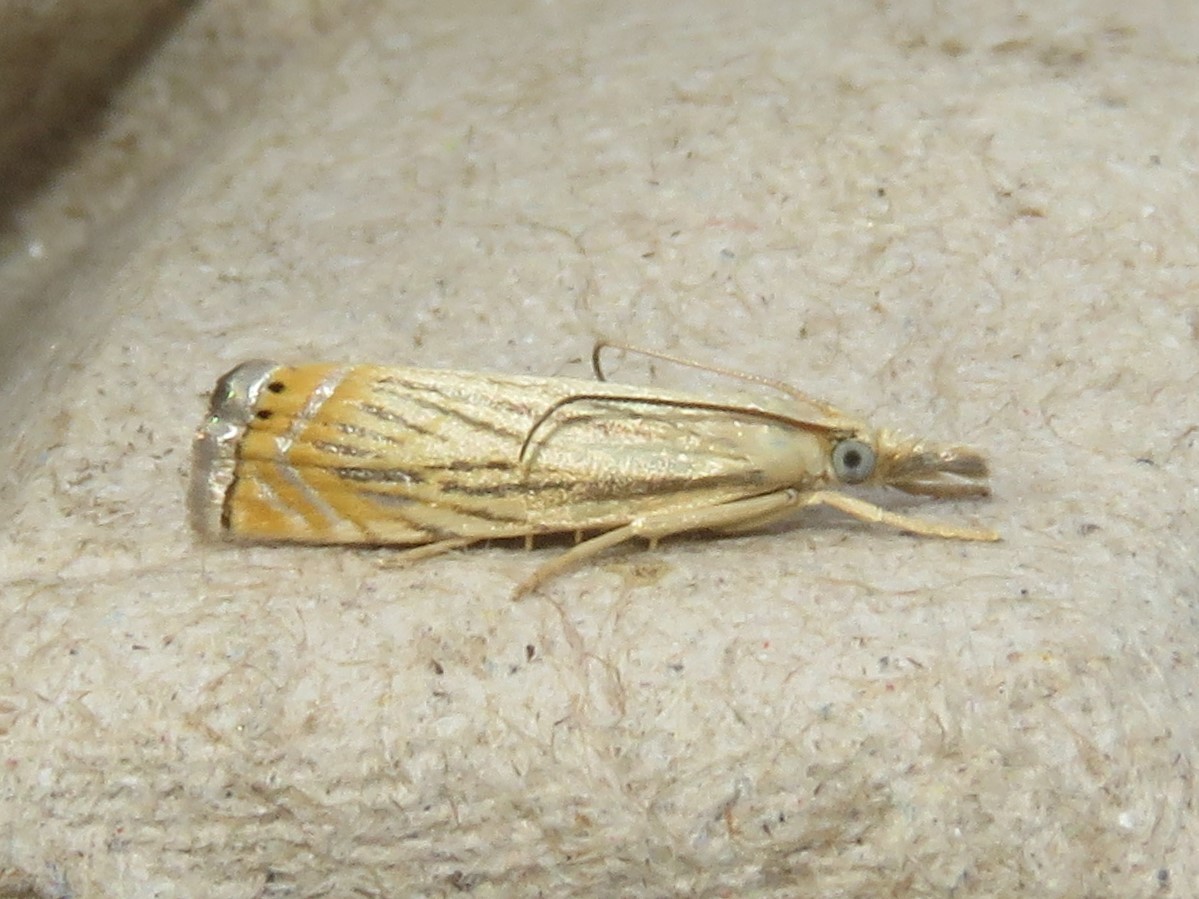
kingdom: Animalia
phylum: Arthropoda
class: Insecta
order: Lepidoptera
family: Crambidae
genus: Chrysoteuchia
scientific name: Chrysoteuchia topiarius
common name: Topiary grass-veneer
